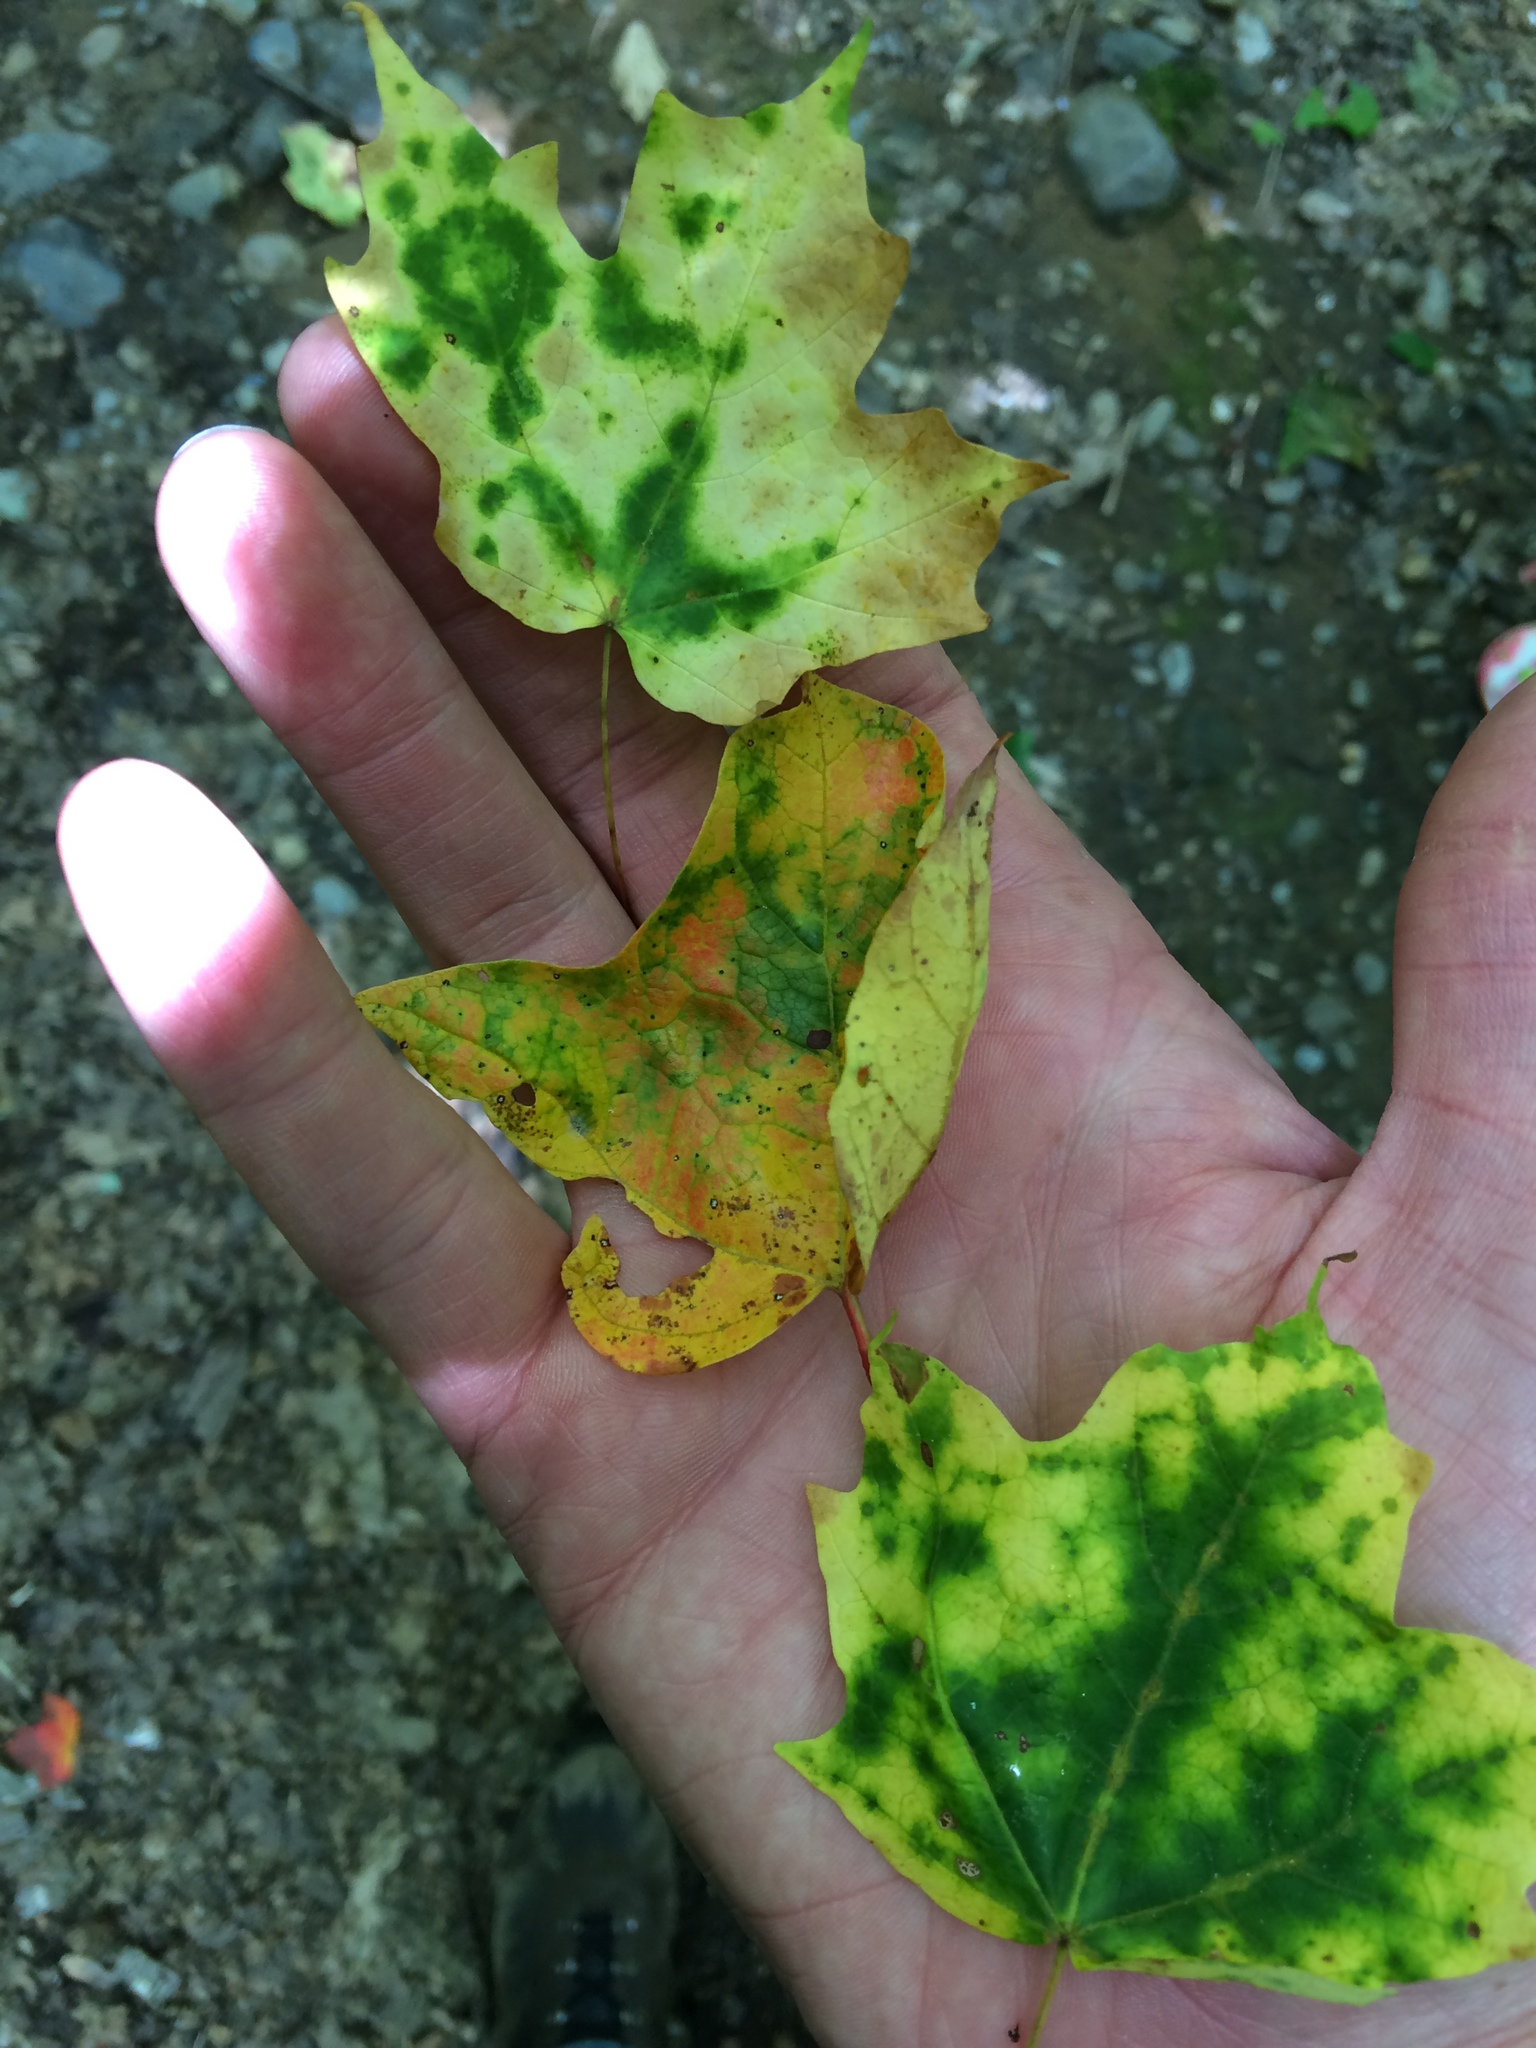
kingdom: Plantae
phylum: Tracheophyta
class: Magnoliopsida
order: Sapindales
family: Sapindaceae
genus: Acer
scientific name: Acer saccharum
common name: Sugar maple
